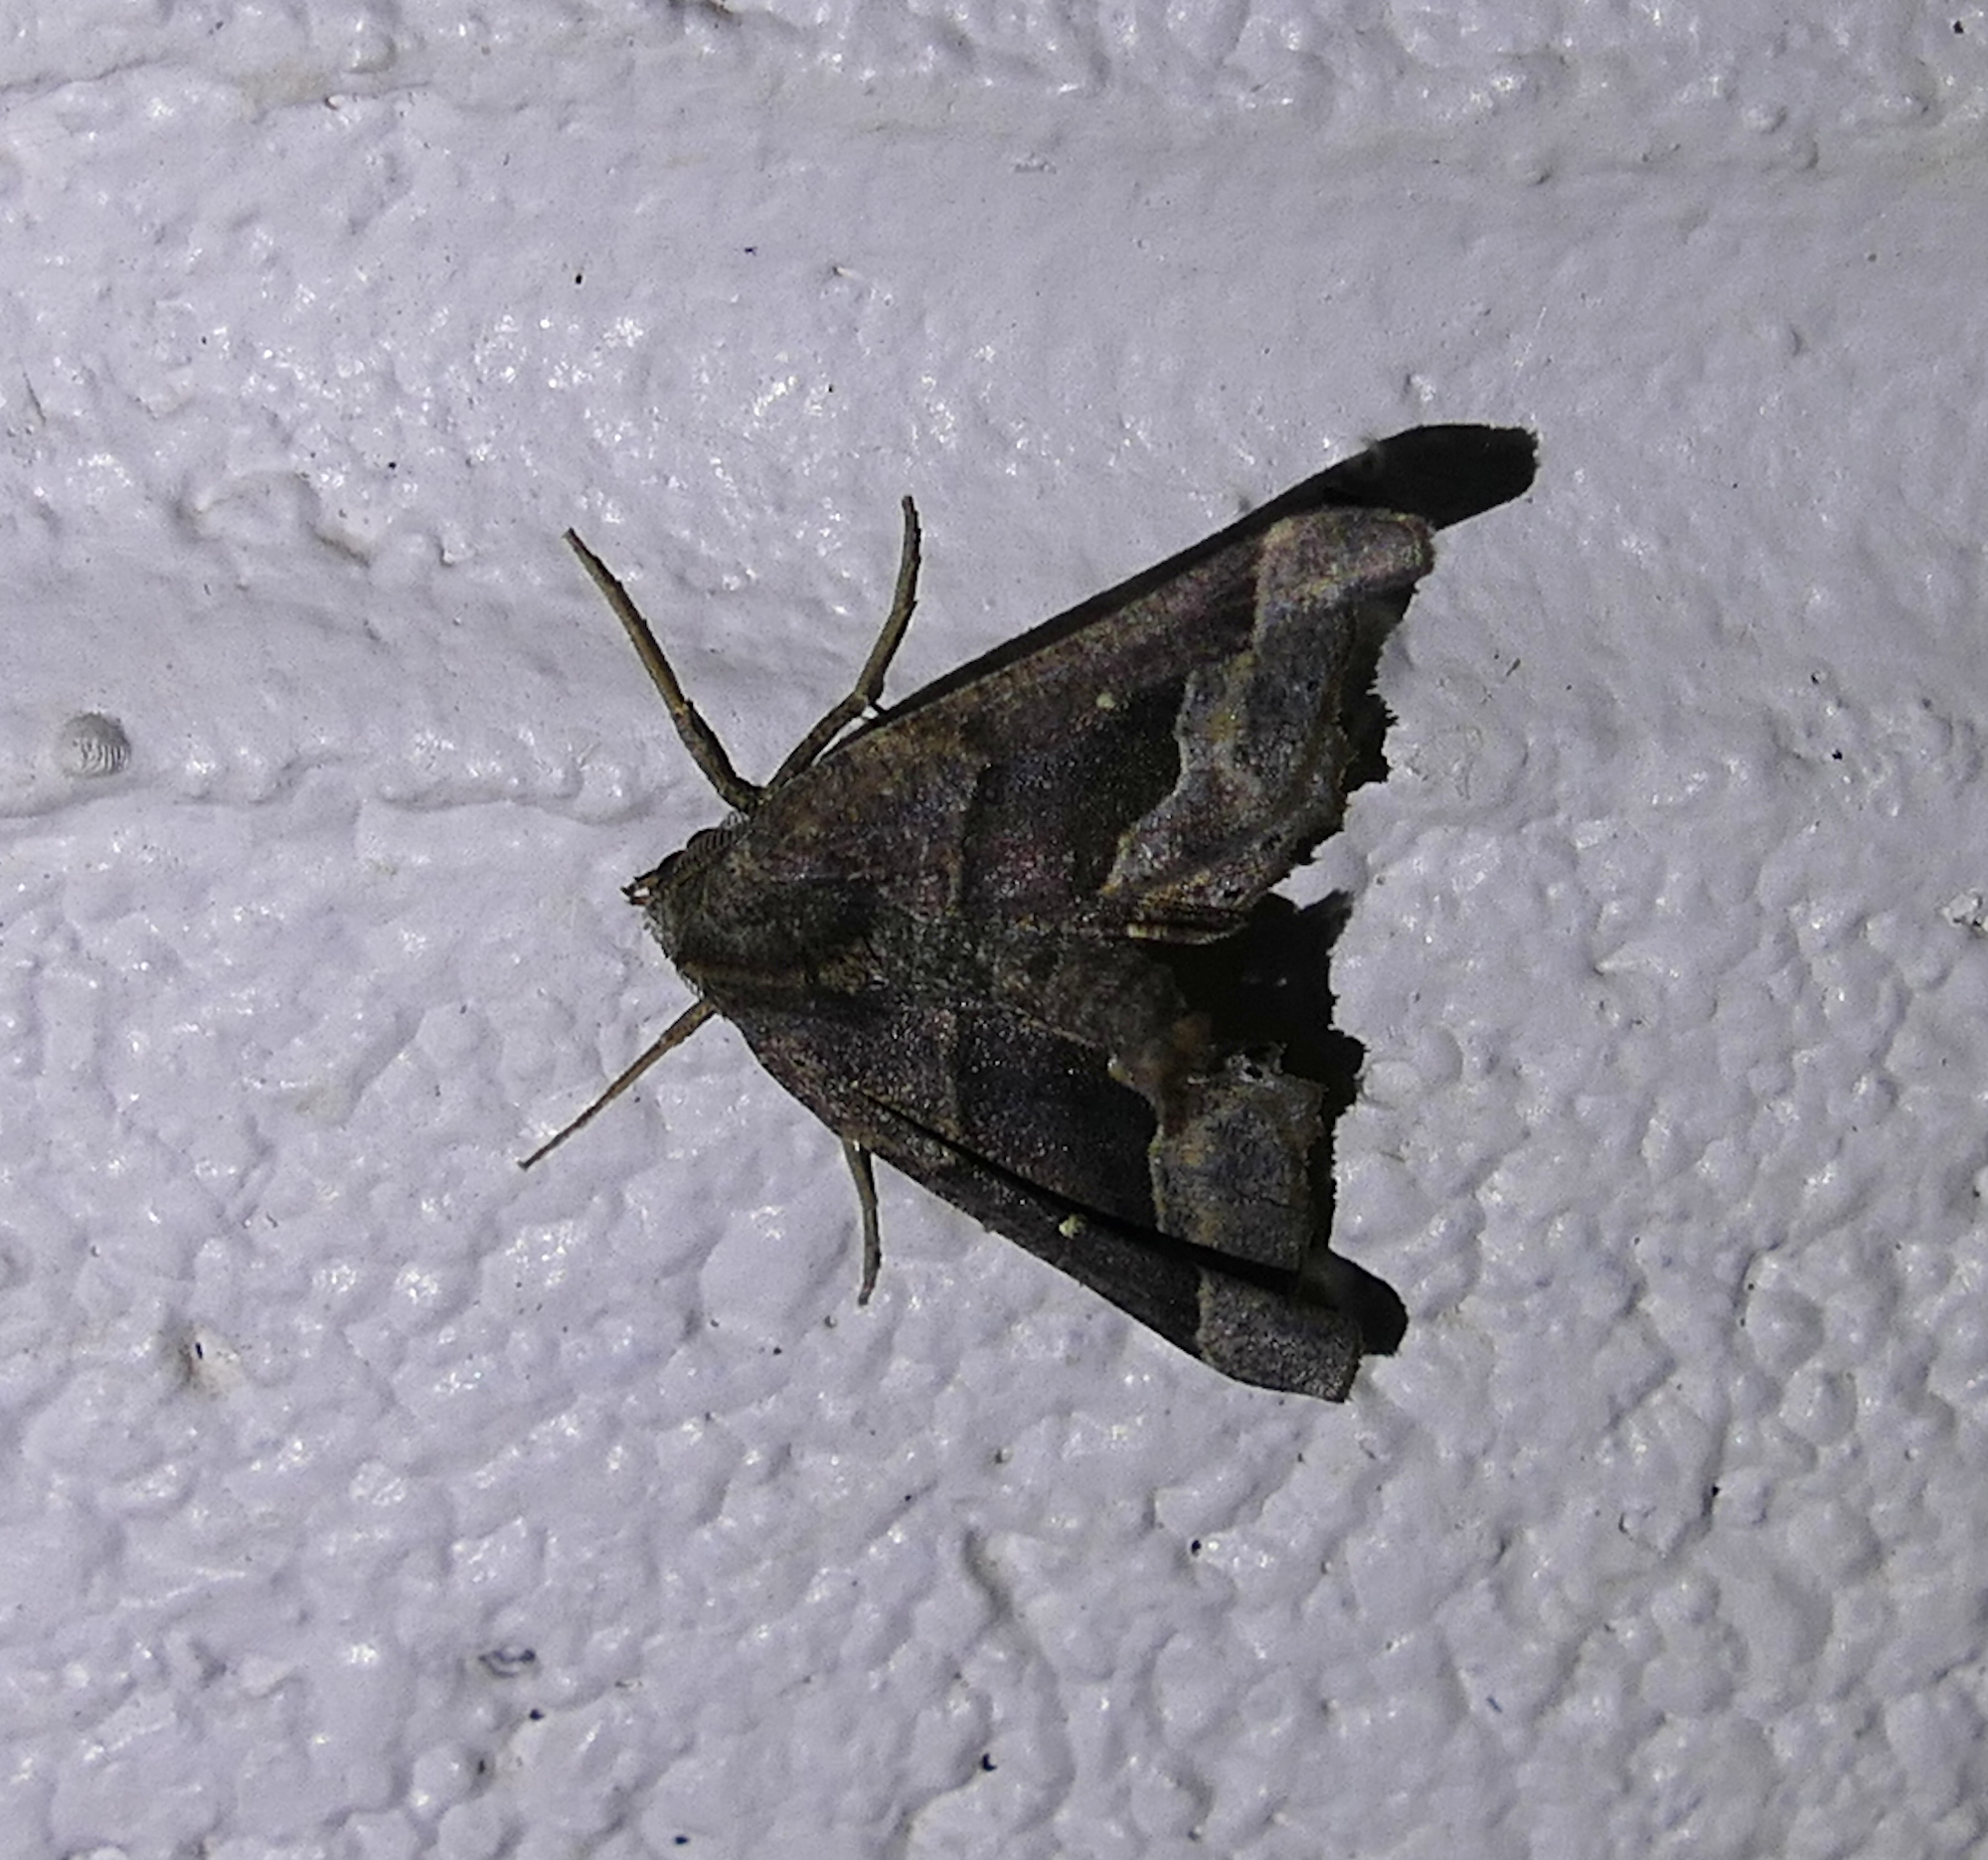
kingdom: Animalia
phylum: Arthropoda
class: Insecta
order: Lepidoptera
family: Geometridae
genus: Pero
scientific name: Pero meskaria
